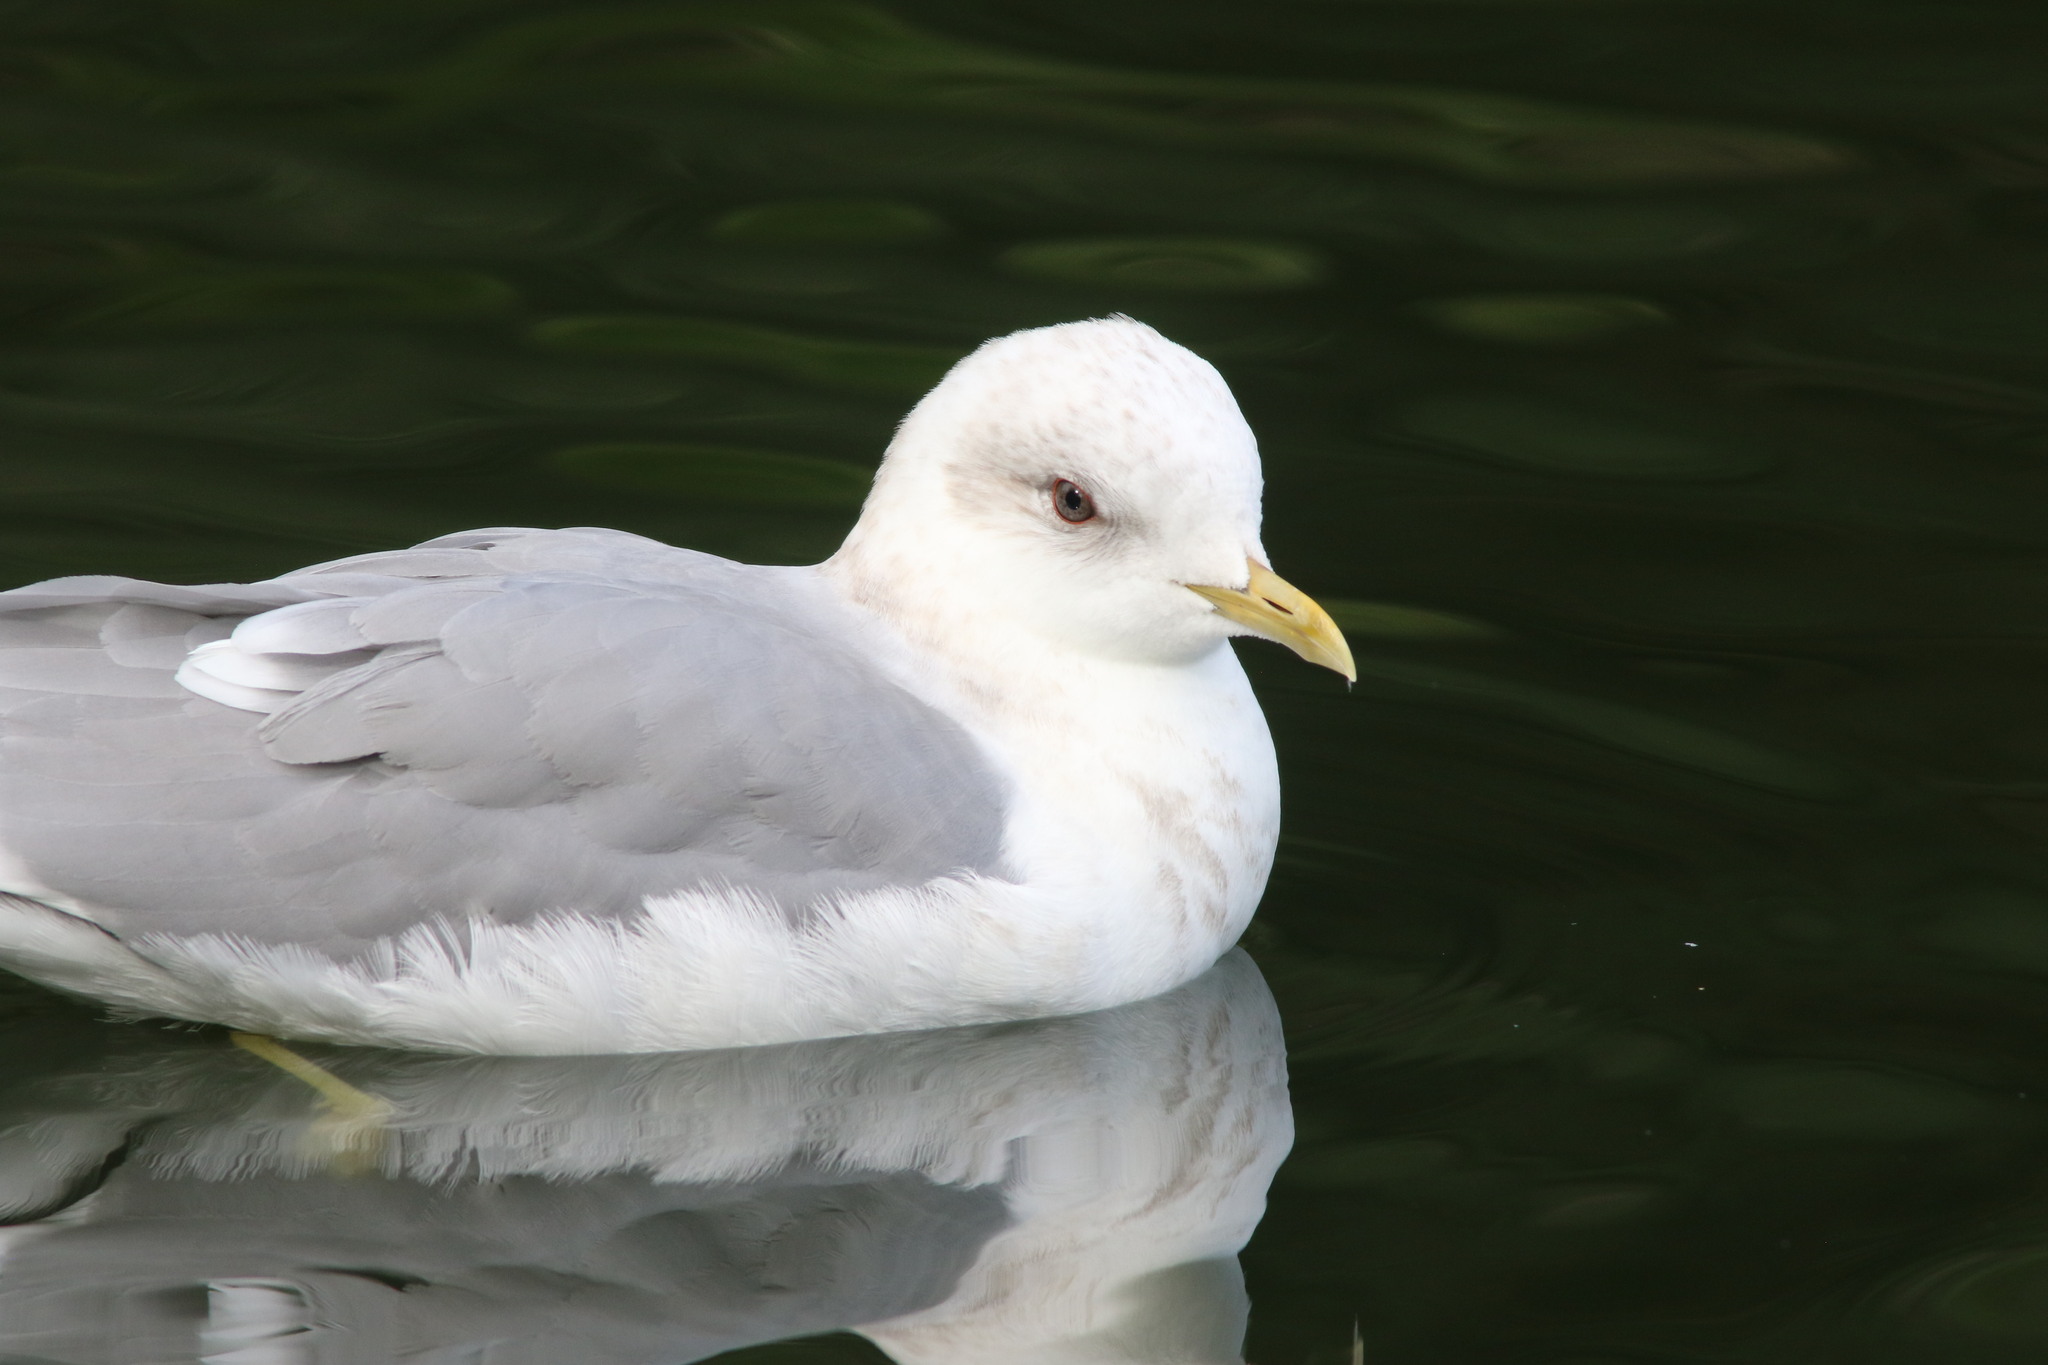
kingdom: Animalia
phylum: Chordata
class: Aves
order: Charadriiformes
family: Laridae
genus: Larus
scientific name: Larus brachyrhynchus
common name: Short-billed gull
